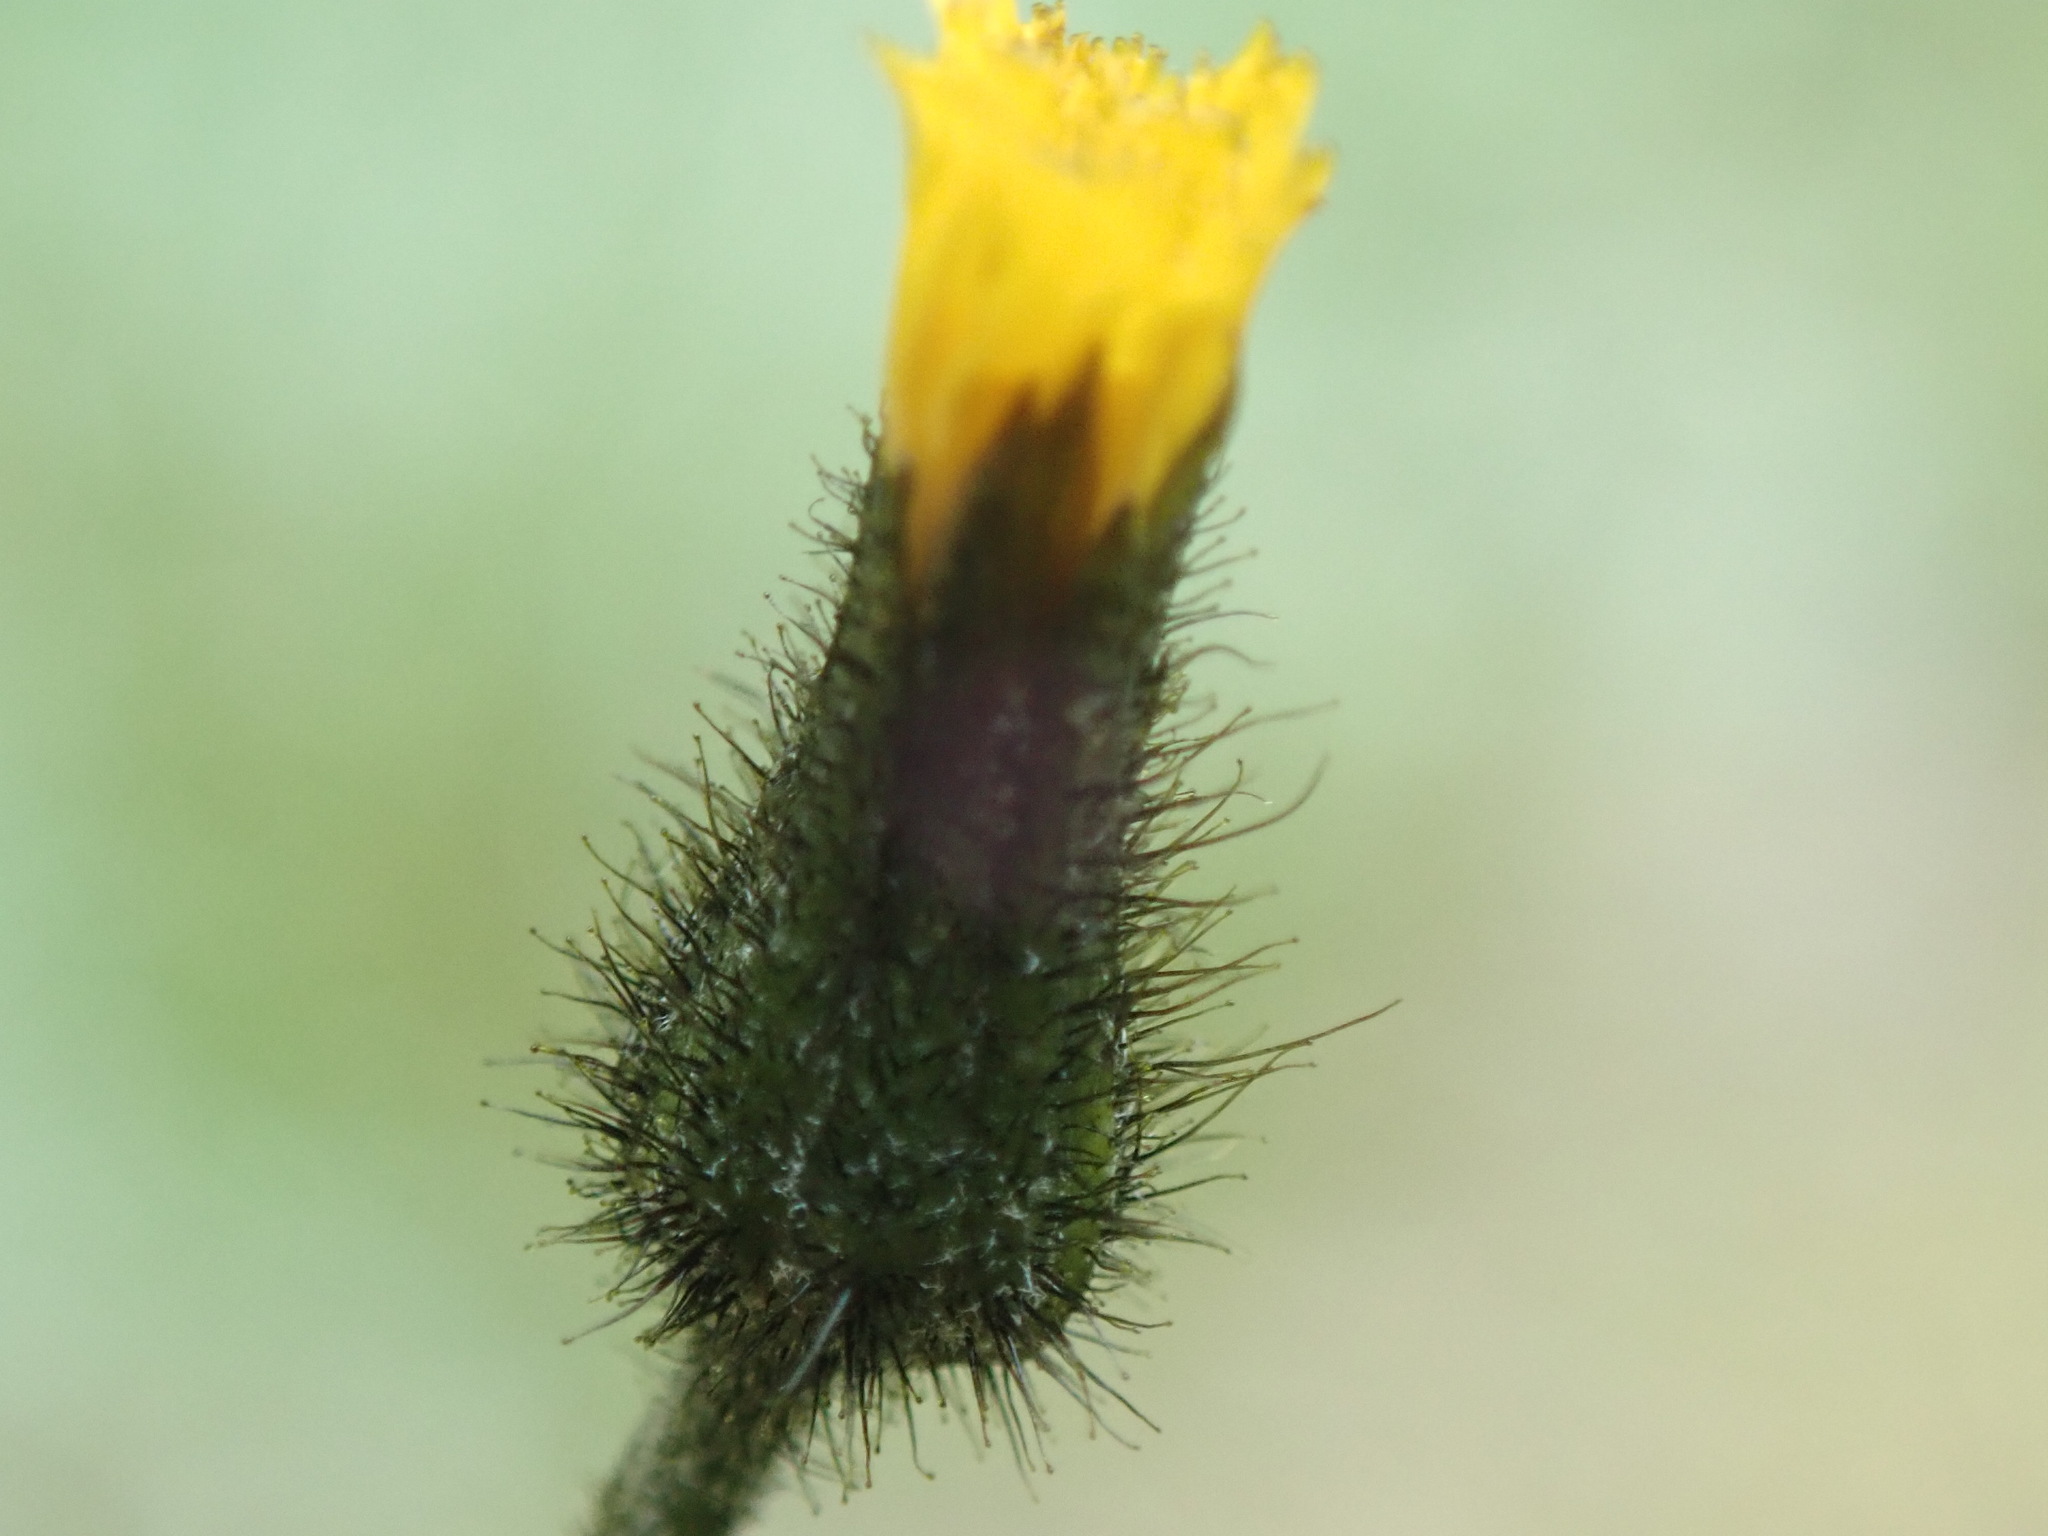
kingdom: Plantae
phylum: Tracheophyta
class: Magnoliopsida
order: Asterales
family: Asteraceae
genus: Hieracium
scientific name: Hieracium triste
